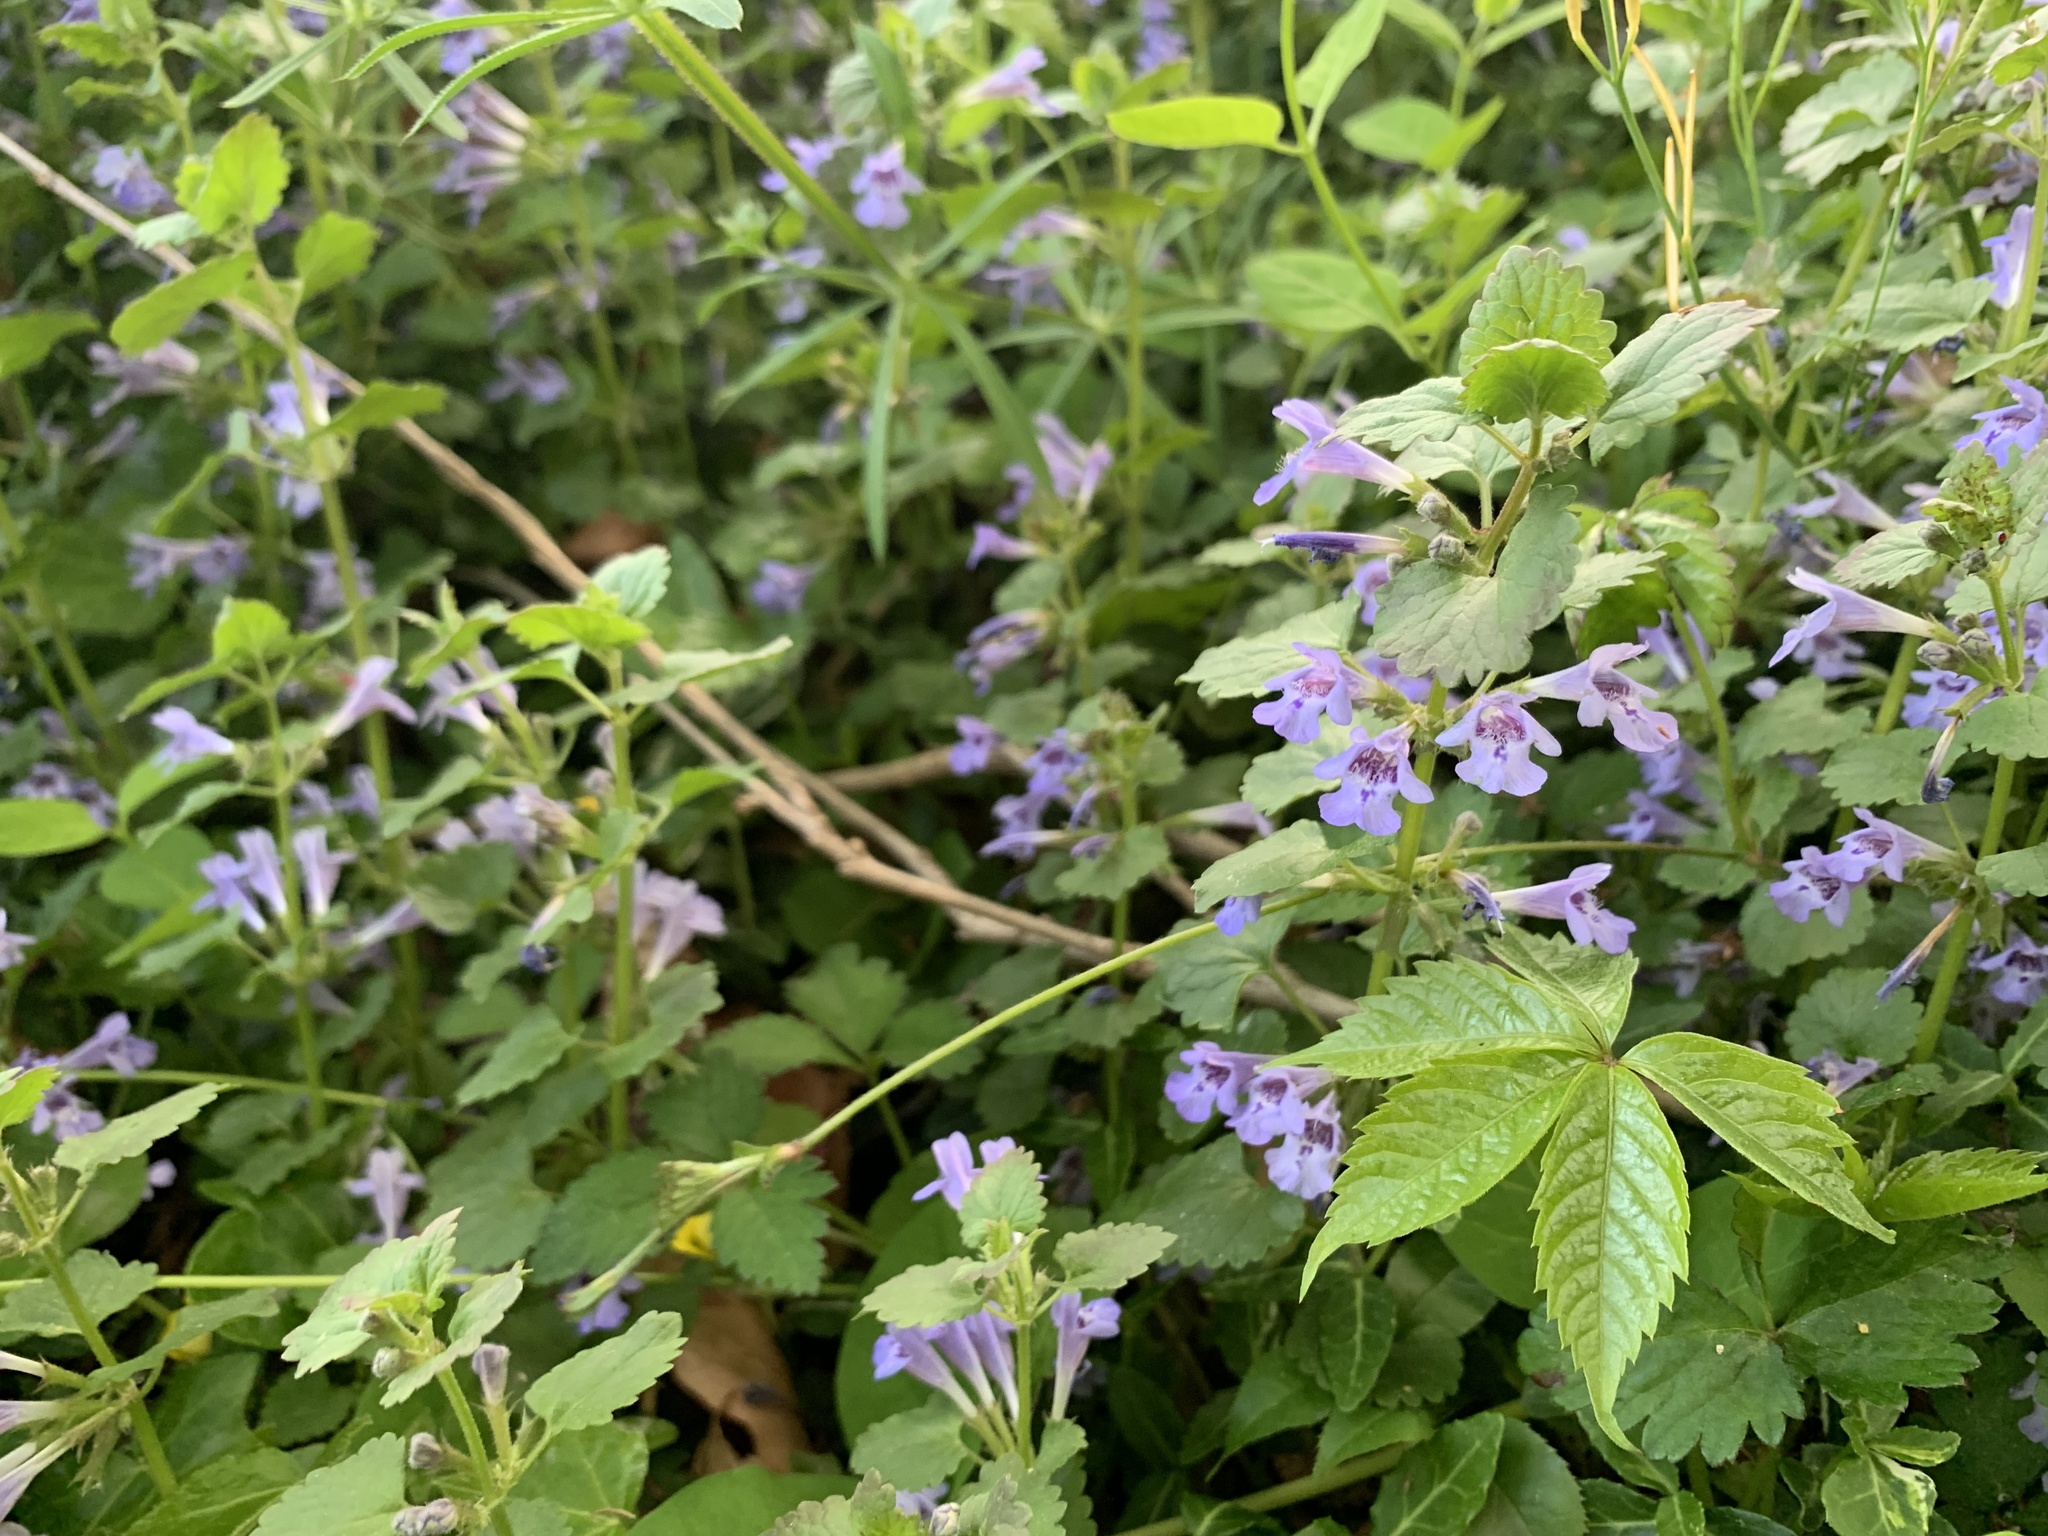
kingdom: Plantae
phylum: Tracheophyta
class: Magnoliopsida
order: Lamiales
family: Lamiaceae
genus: Glechoma
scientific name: Glechoma hederacea
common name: Ground ivy
